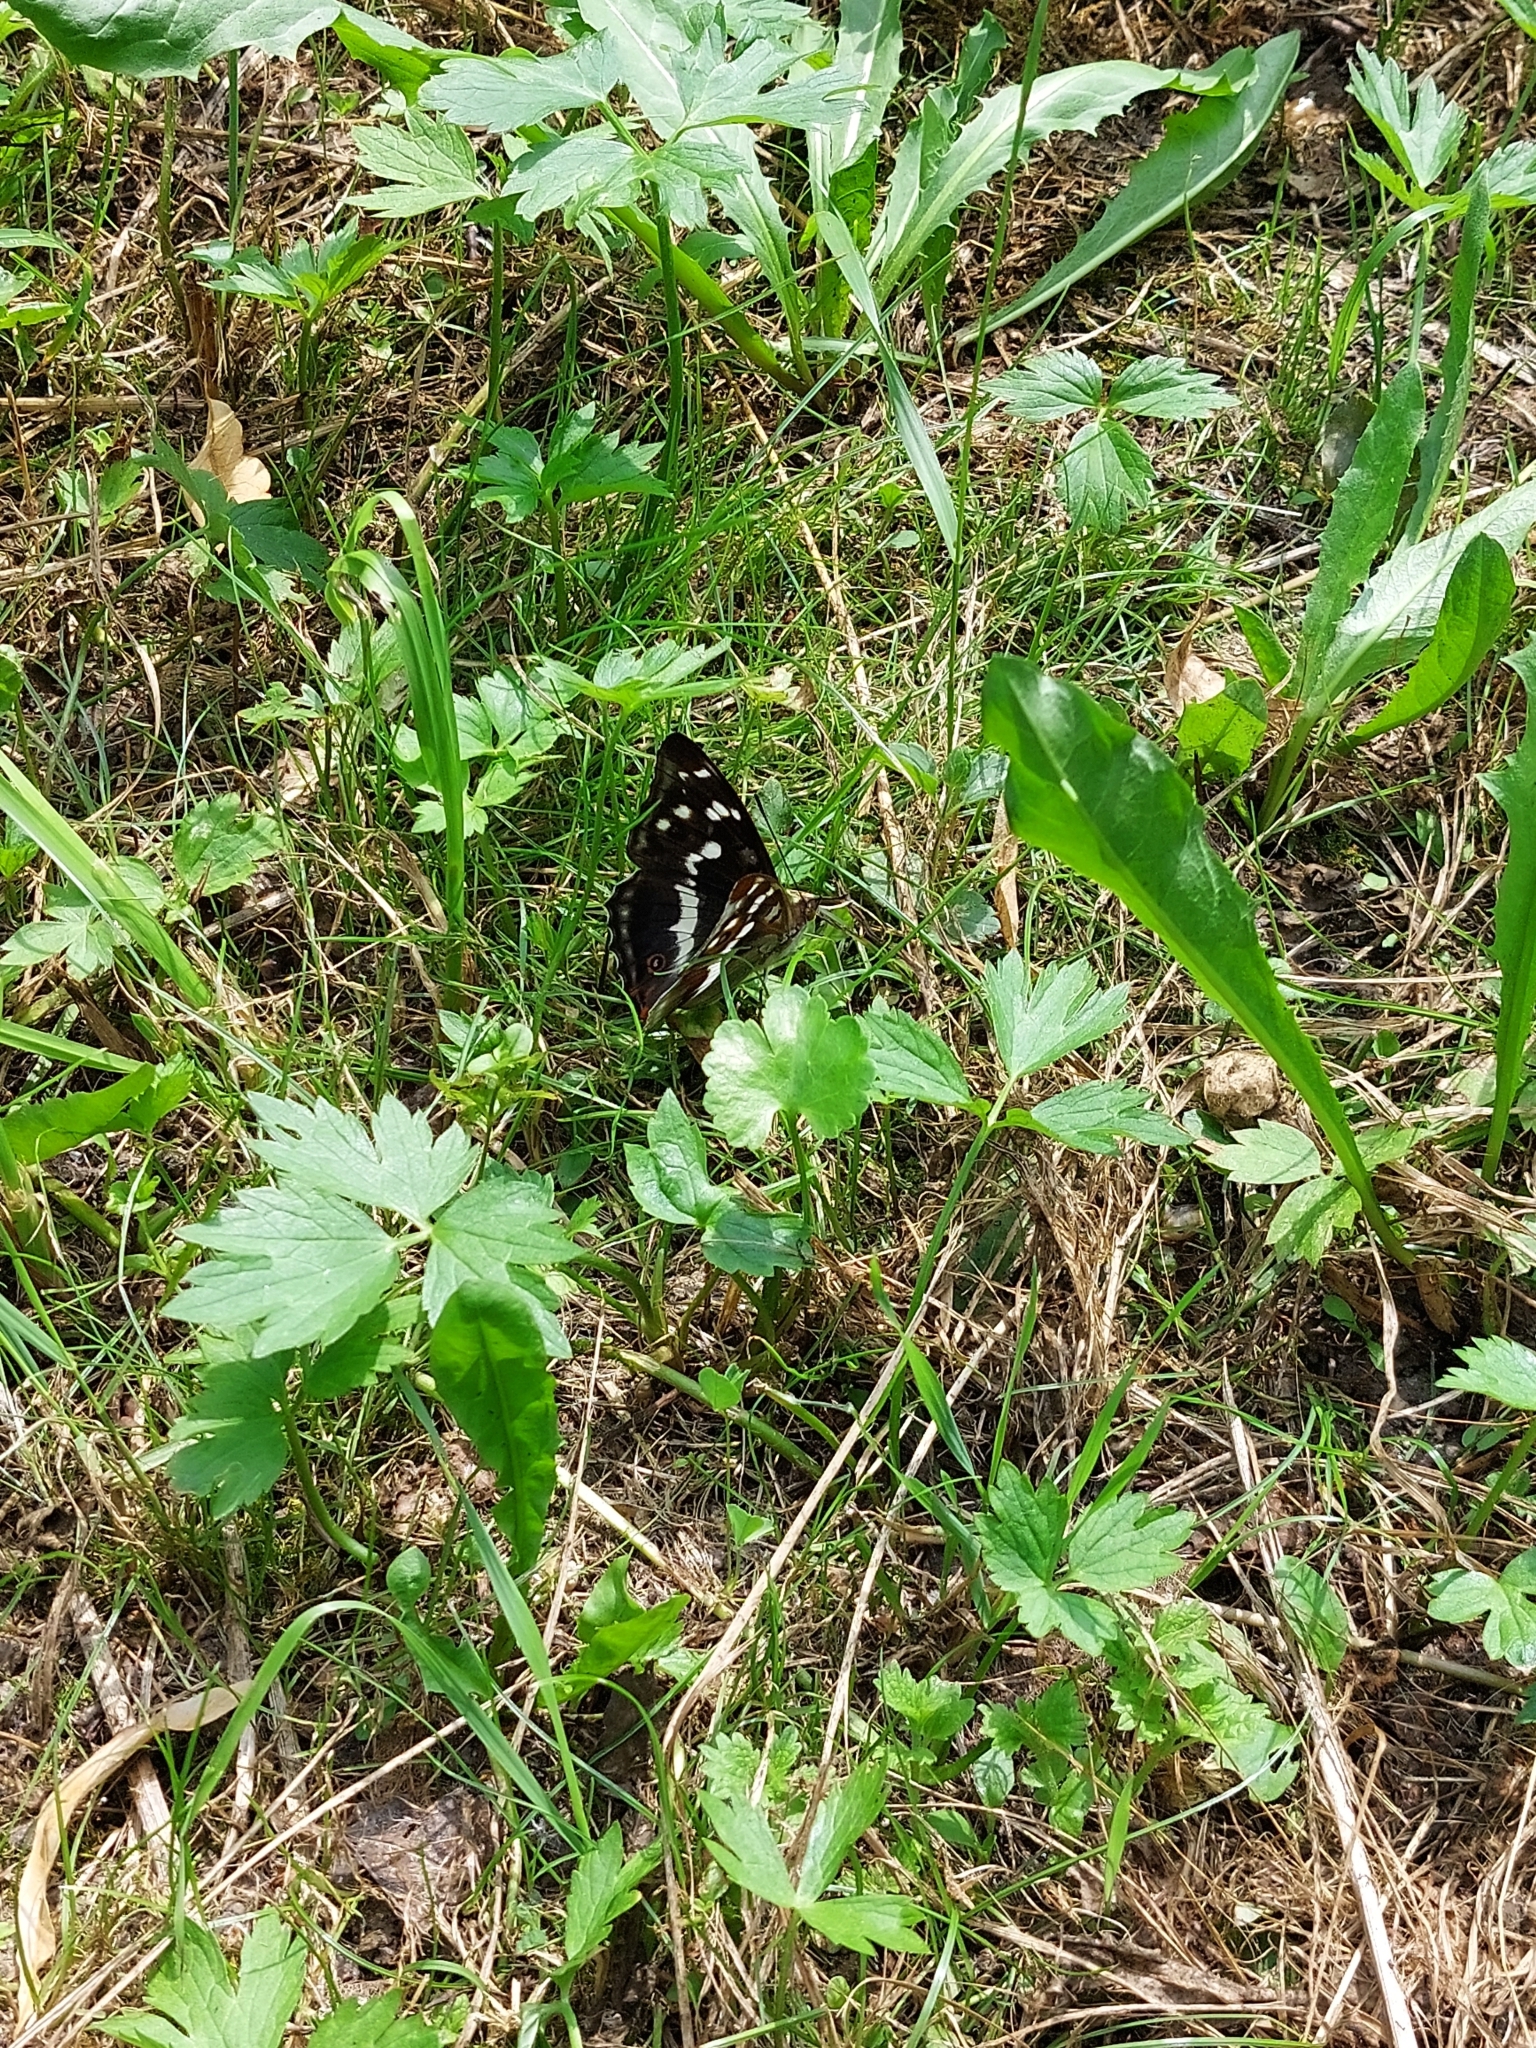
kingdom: Animalia
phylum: Arthropoda
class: Insecta
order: Lepidoptera
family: Nymphalidae
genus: Apatura
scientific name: Apatura iris
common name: Purple emperor
